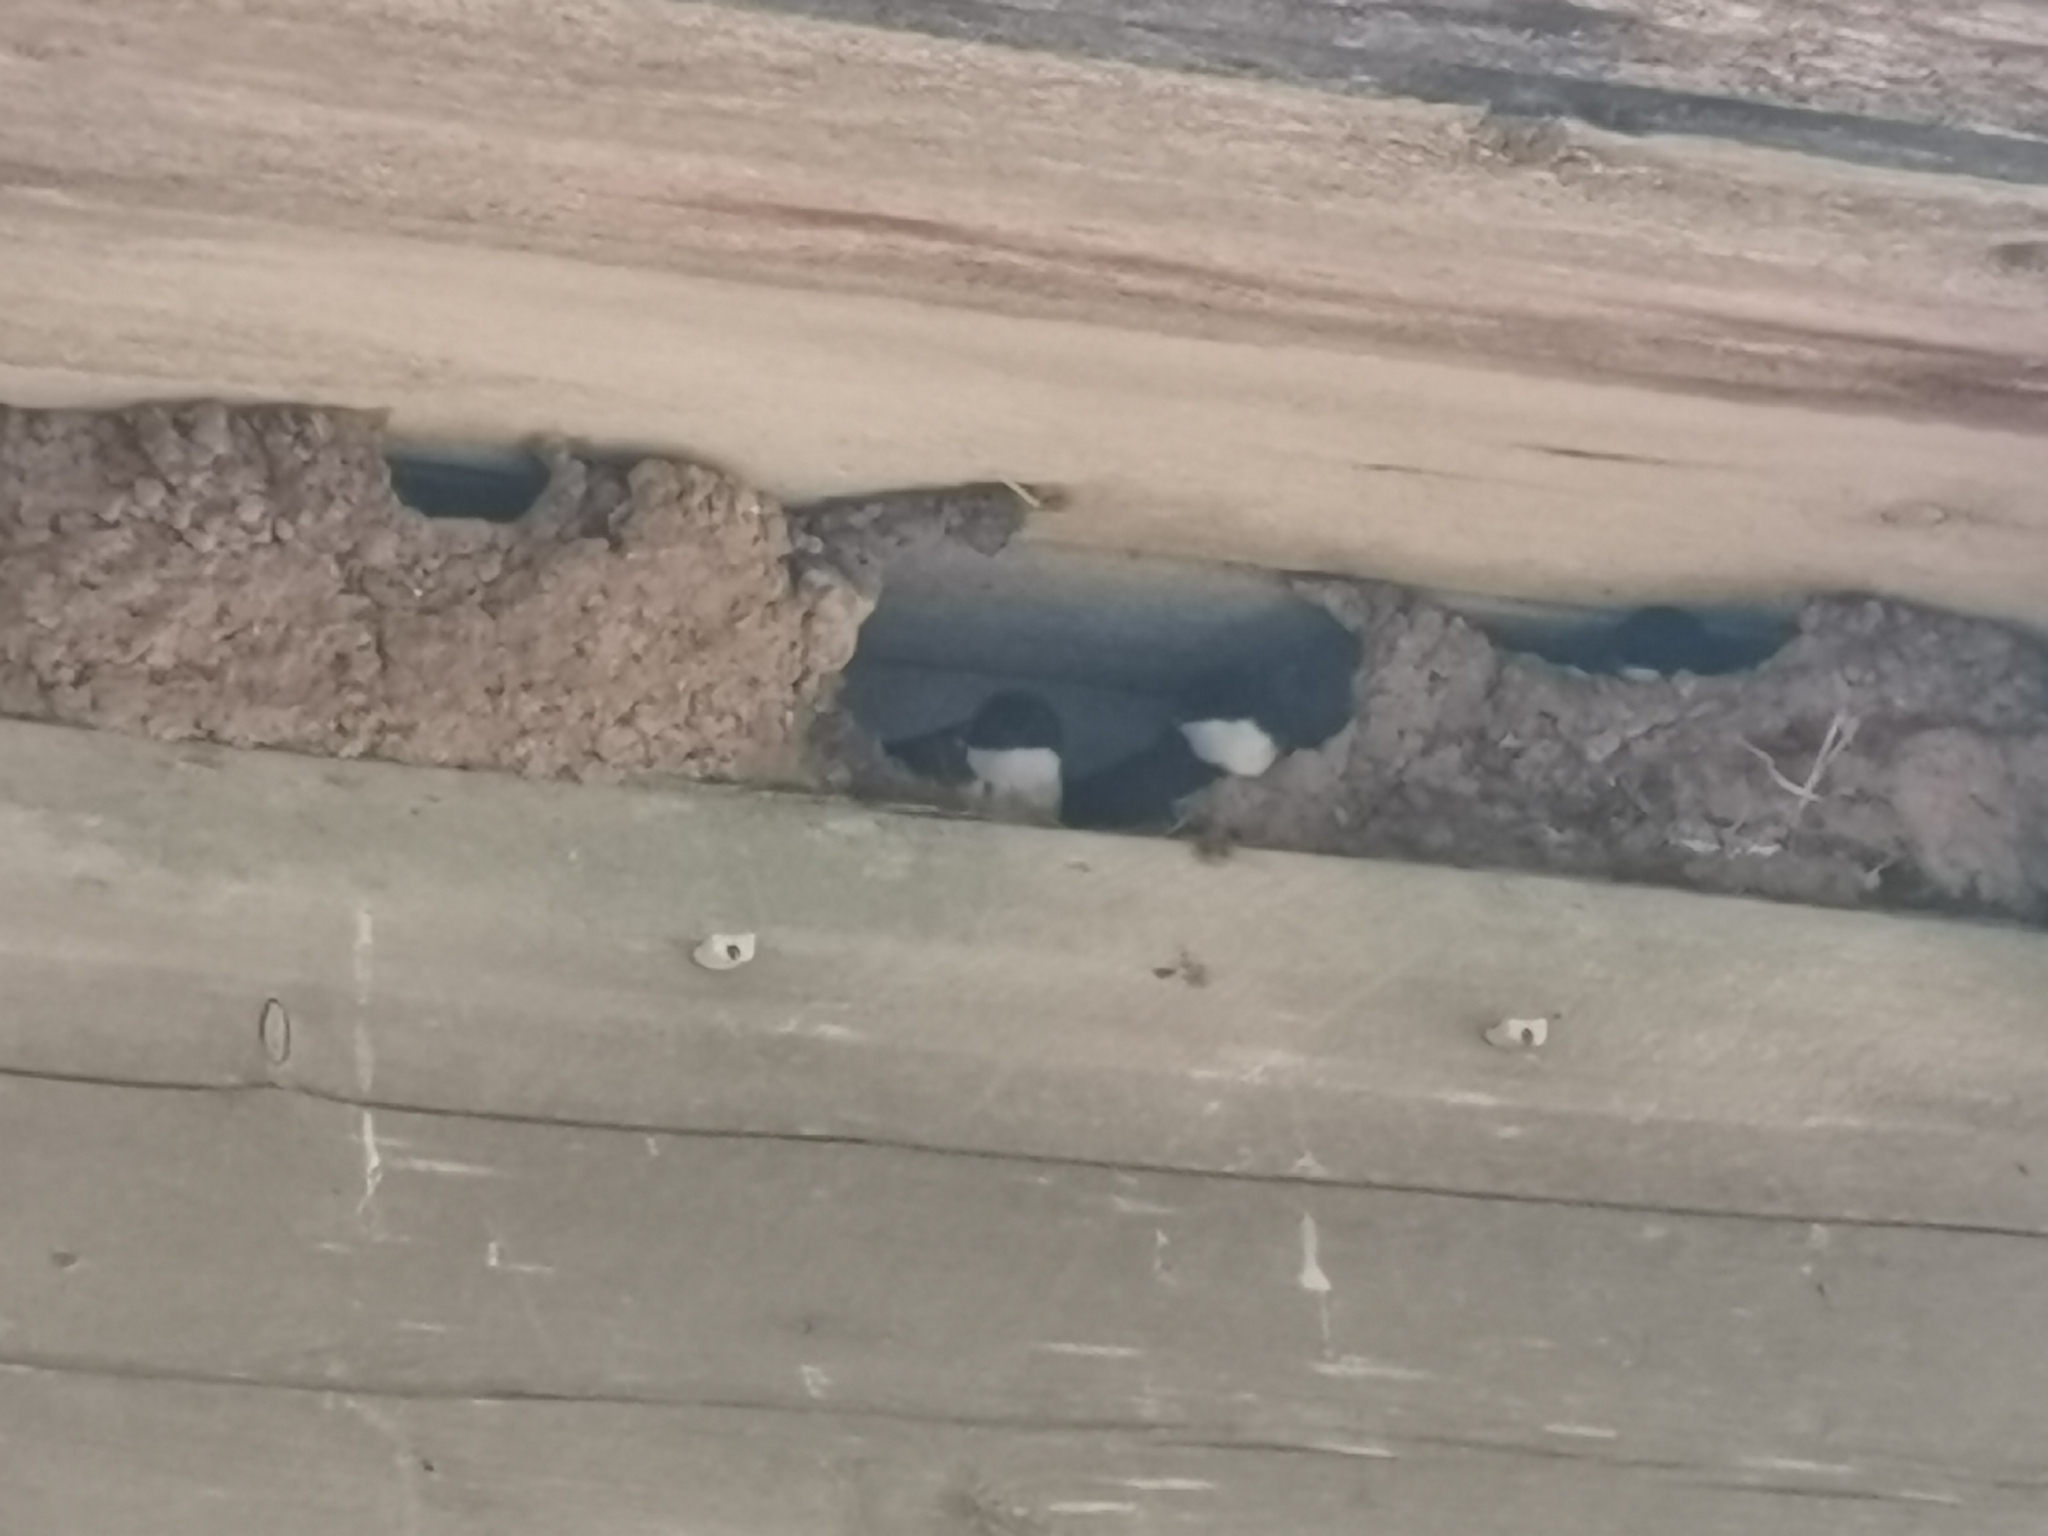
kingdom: Animalia
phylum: Chordata
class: Aves
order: Passeriformes
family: Hirundinidae
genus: Delichon
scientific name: Delichon urbicum
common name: Common house martin
